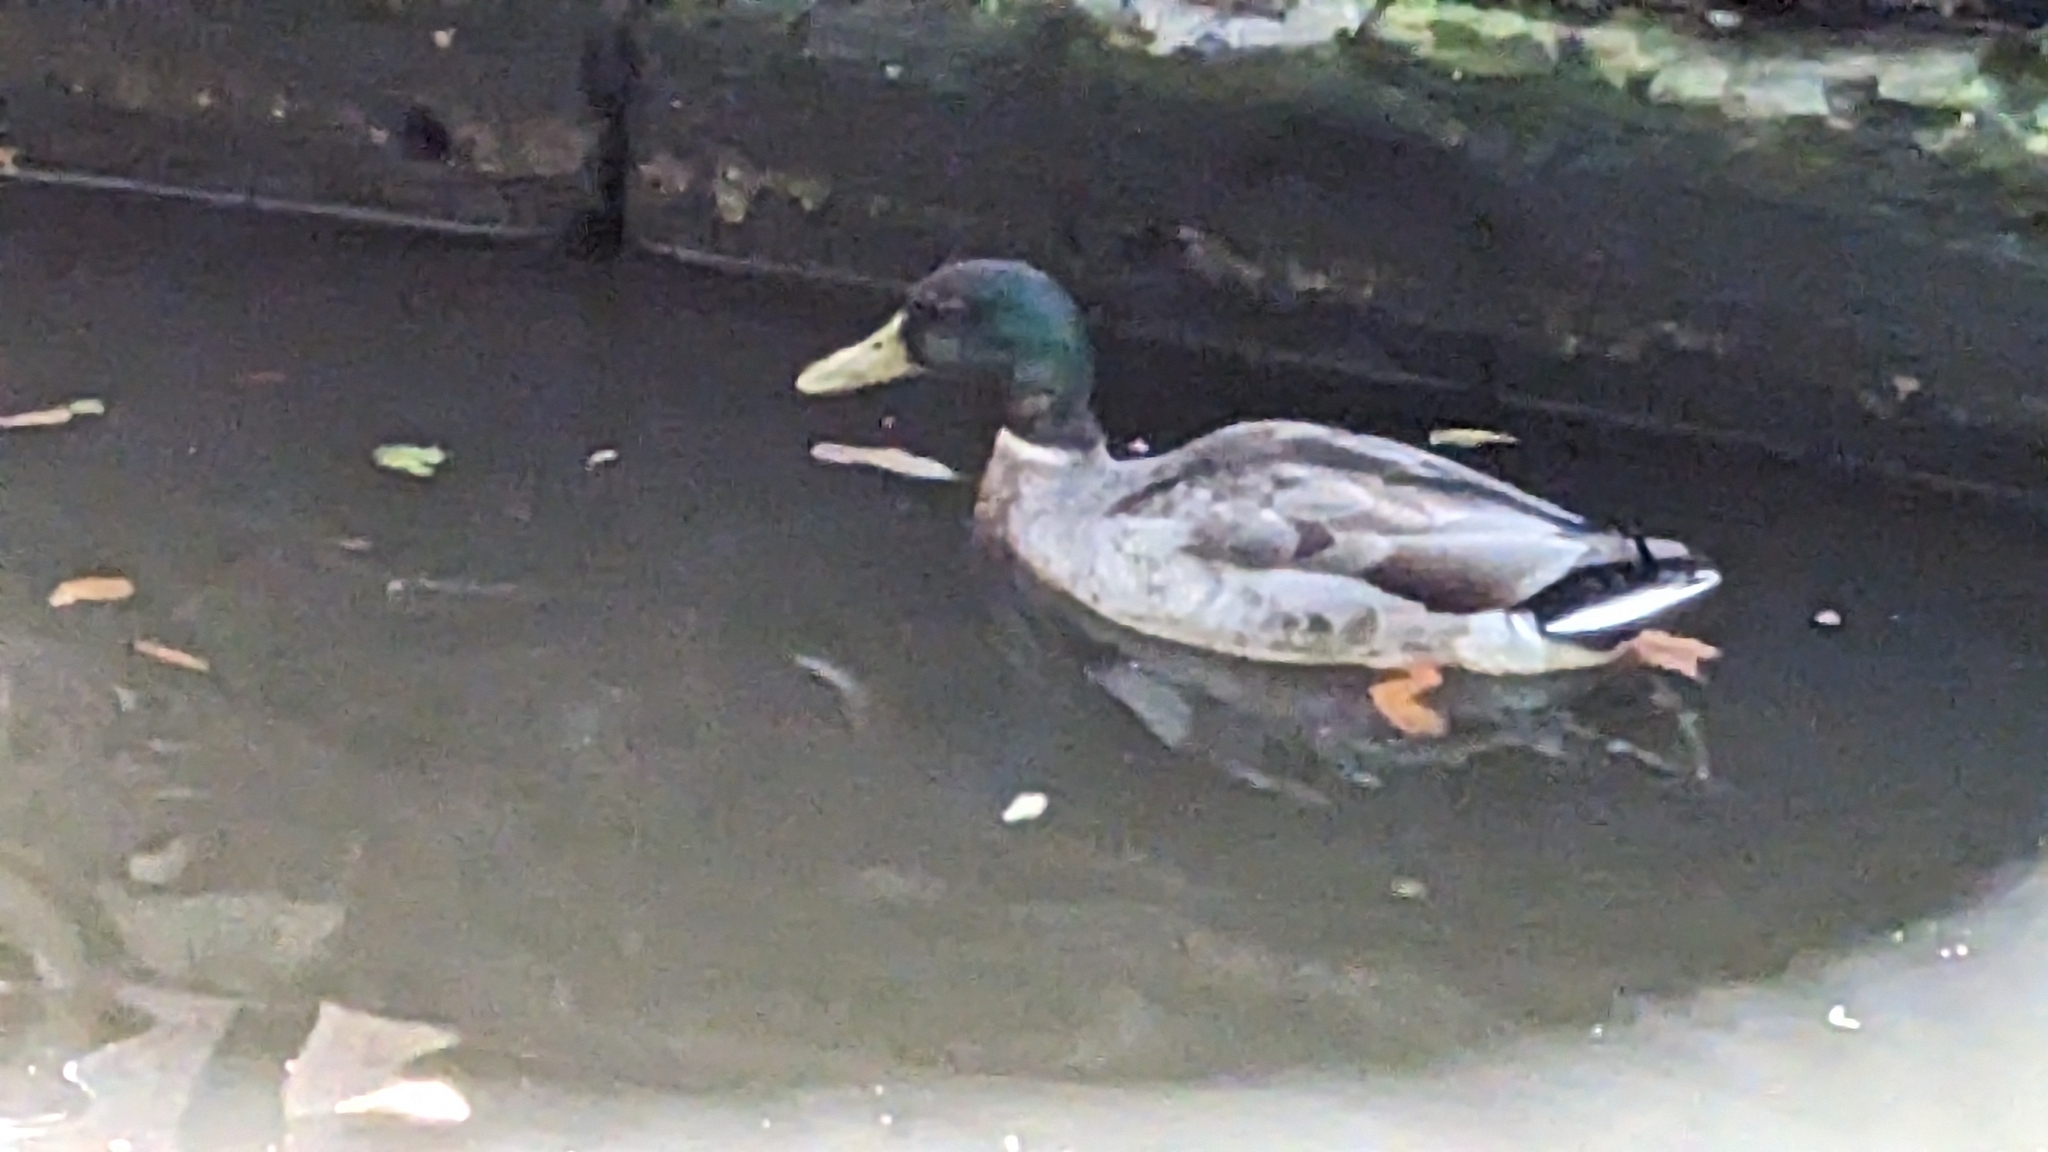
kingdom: Animalia
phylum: Chordata
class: Aves
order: Anseriformes
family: Anatidae
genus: Anas
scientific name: Anas platyrhynchos
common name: Mallard
